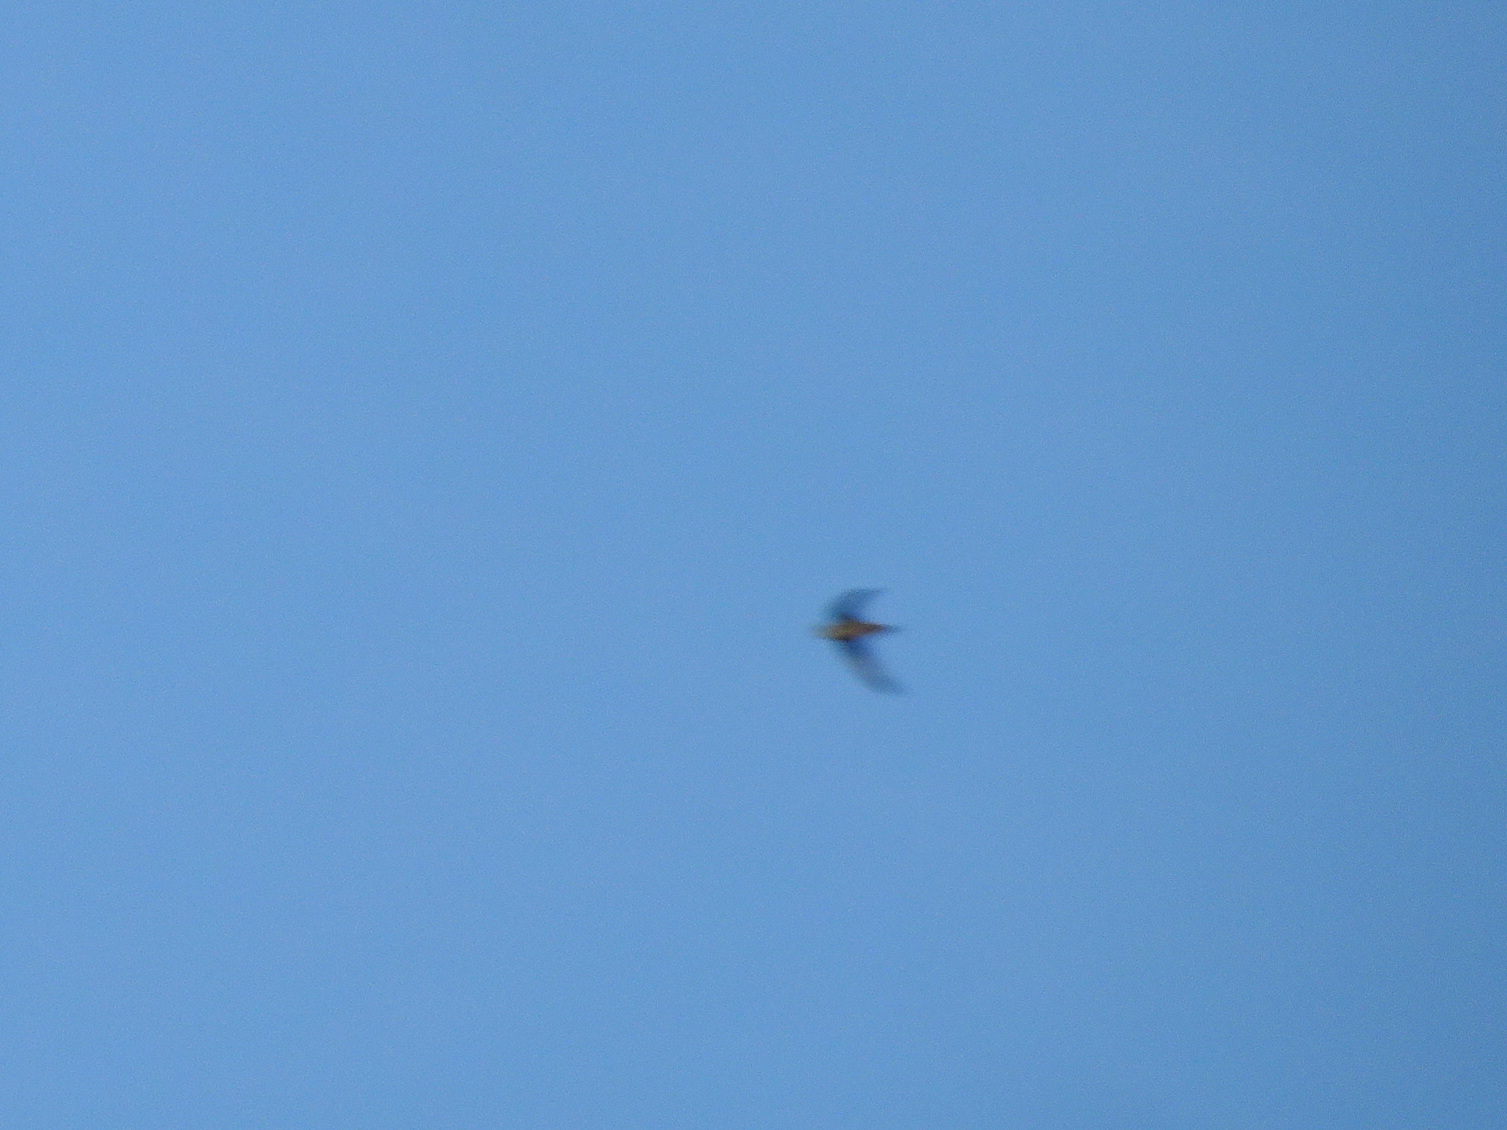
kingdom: Animalia
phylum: Chordata
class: Aves
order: Apodiformes
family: Apodidae
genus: Chaetura
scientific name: Chaetura vauxi
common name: Vaux's swift
